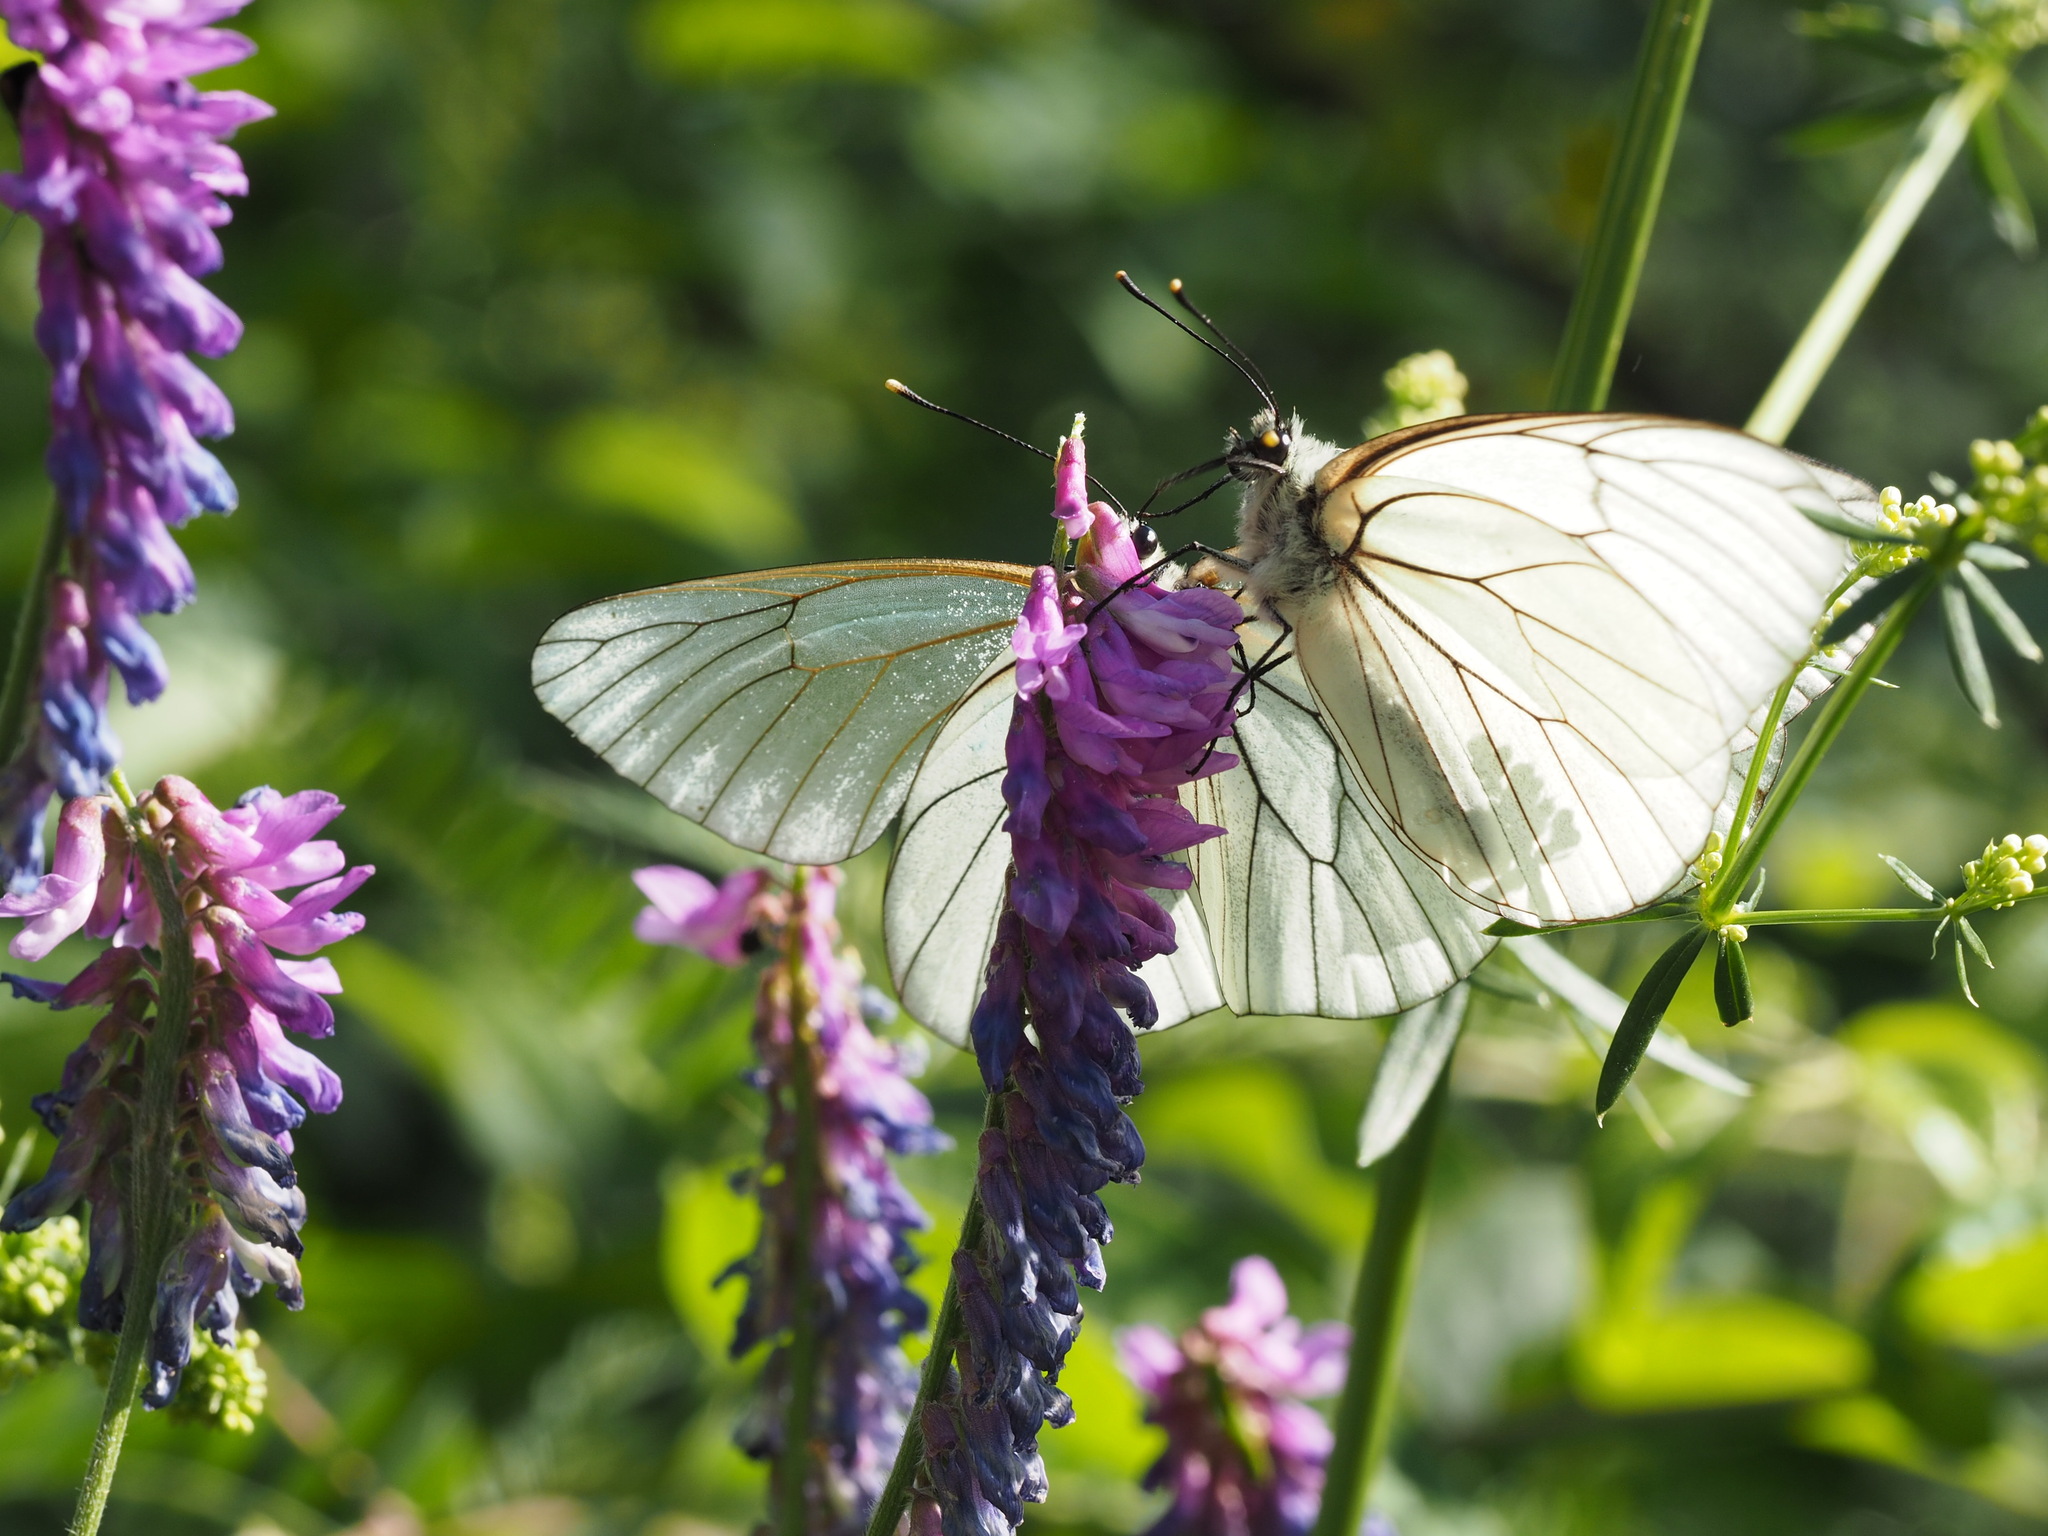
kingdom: Animalia
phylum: Arthropoda
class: Insecta
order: Lepidoptera
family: Pieridae
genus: Aporia
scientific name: Aporia crataegi
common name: Black-veined white
